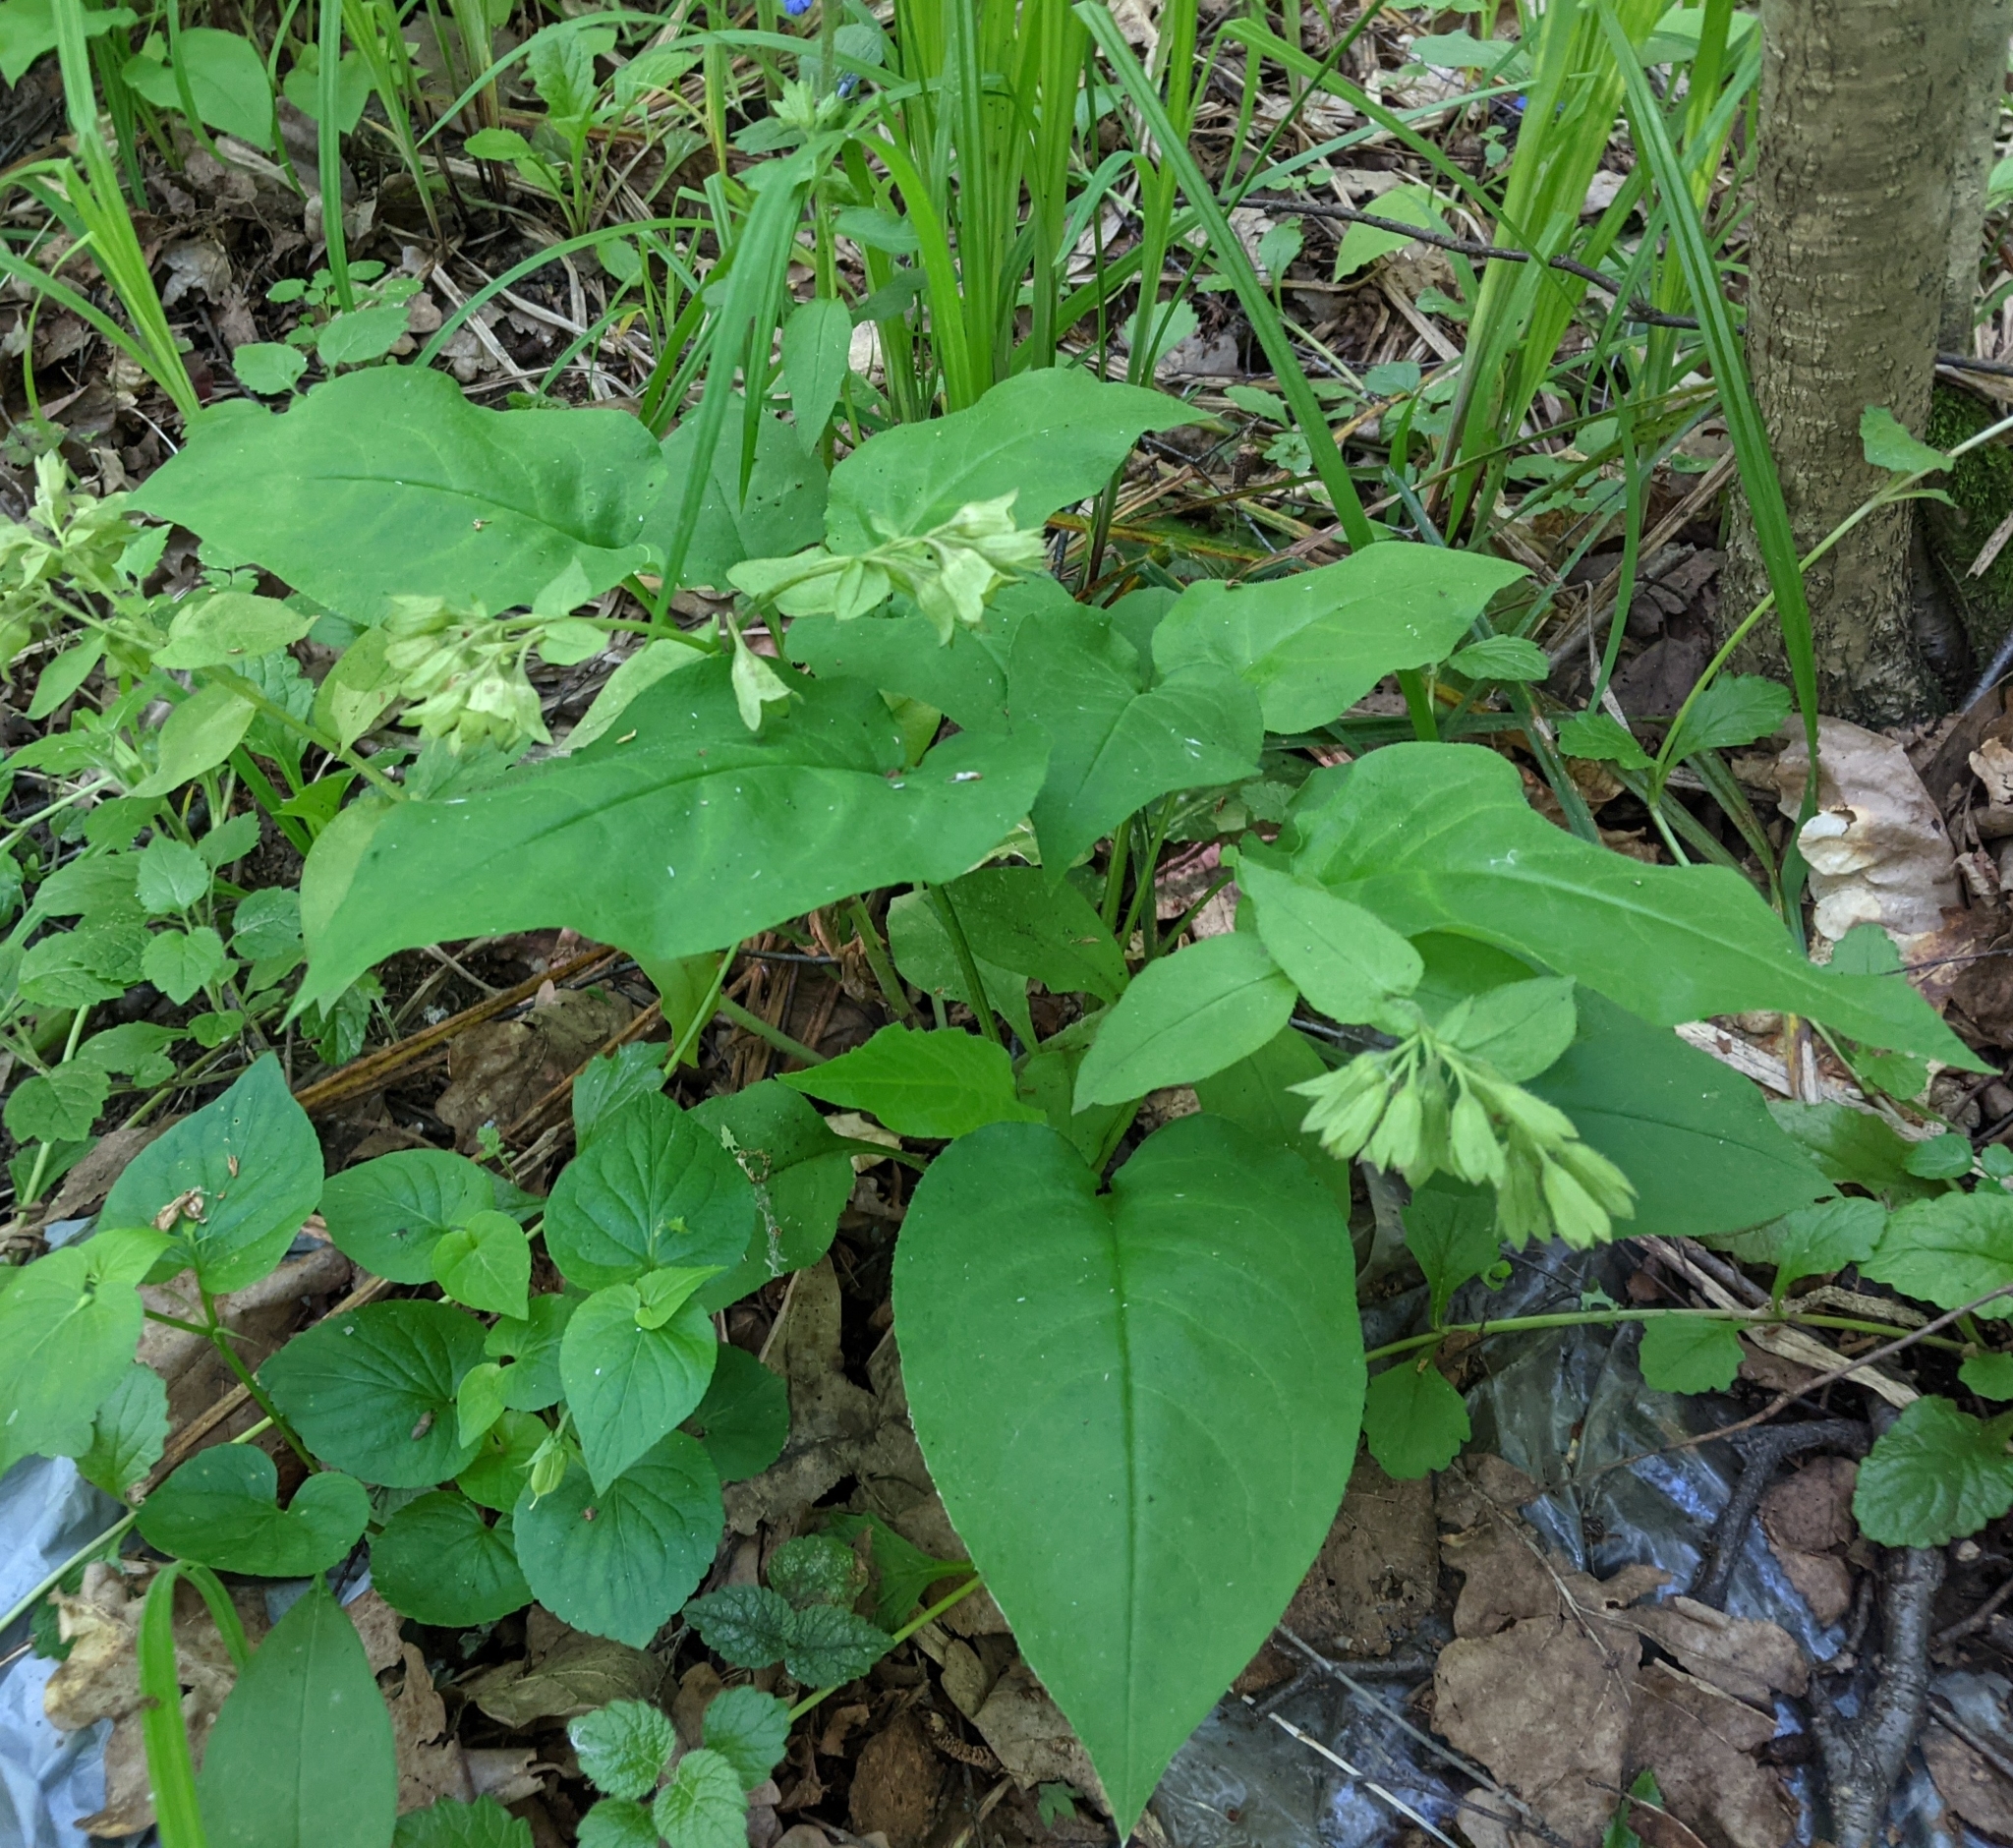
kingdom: Plantae
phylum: Tracheophyta
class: Magnoliopsida
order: Boraginales
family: Boraginaceae
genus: Pulmonaria
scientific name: Pulmonaria obscura
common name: Suffolk lungwort
